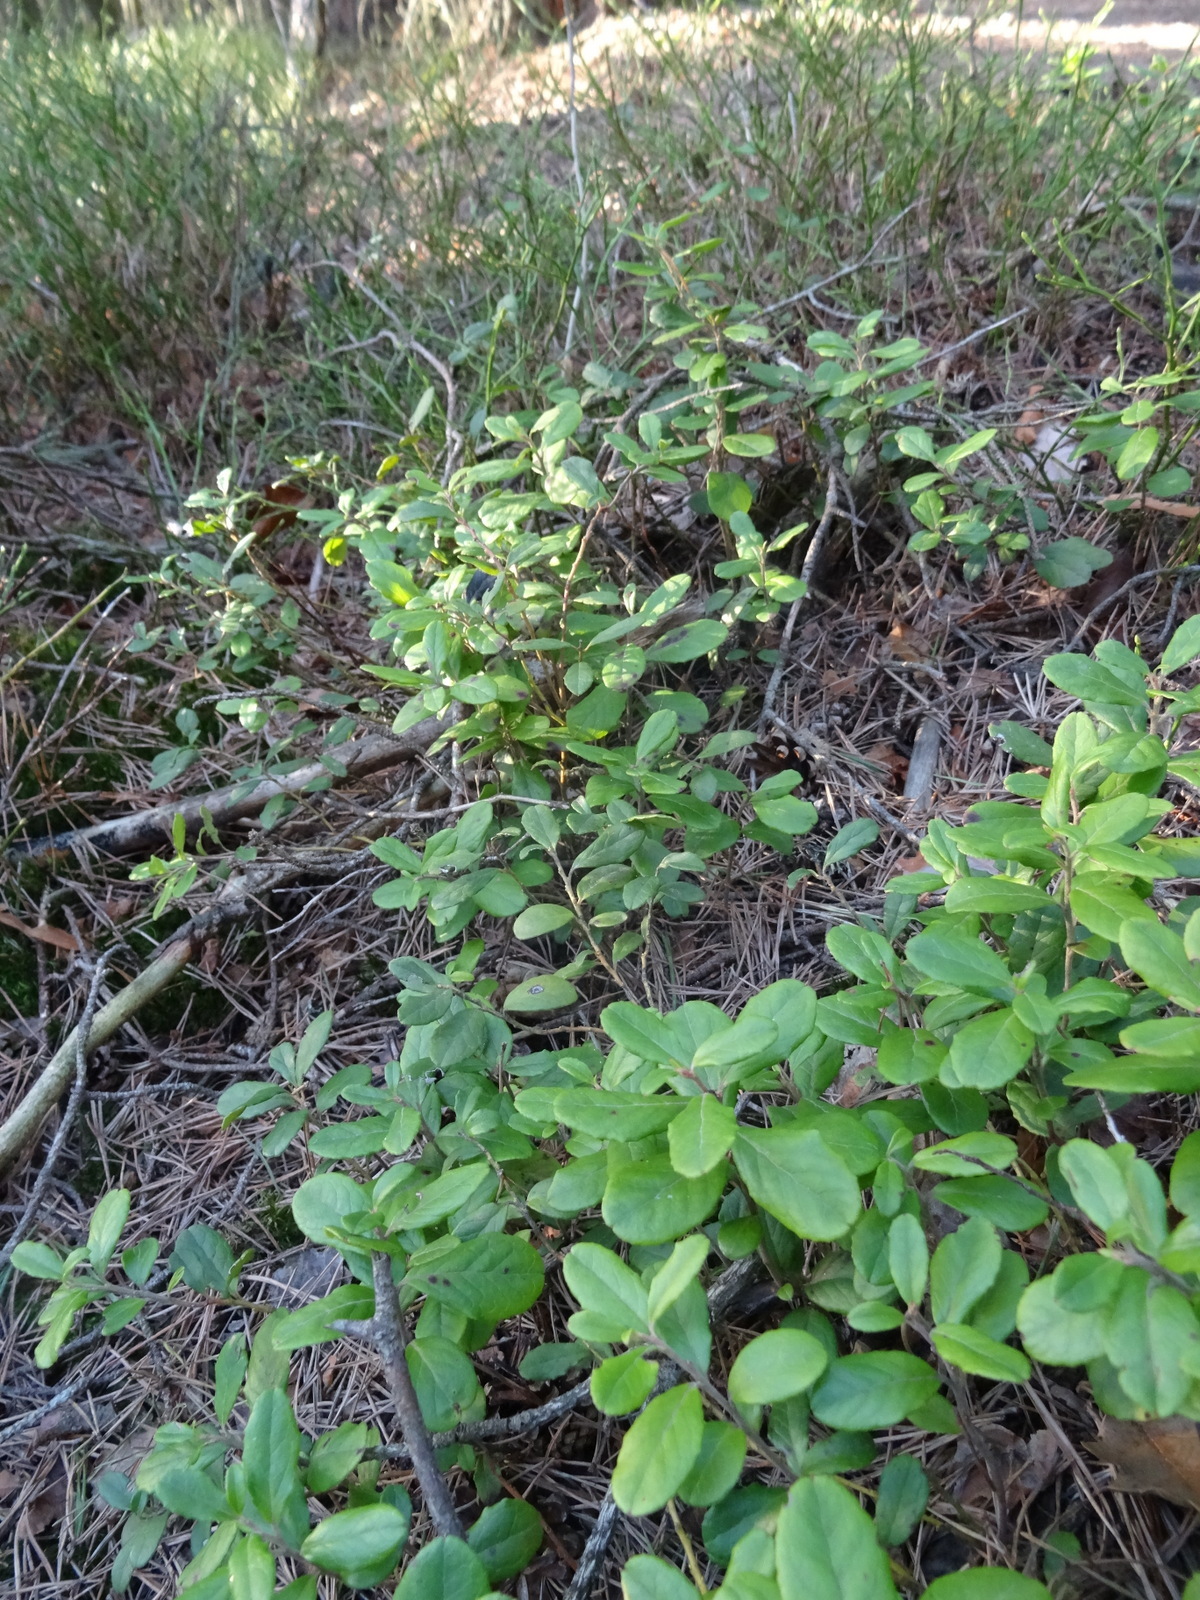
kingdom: Plantae
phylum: Tracheophyta
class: Magnoliopsida
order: Ericales
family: Ericaceae
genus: Vaccinium
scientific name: Vaccinium vitis-idaea
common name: Cowberry
